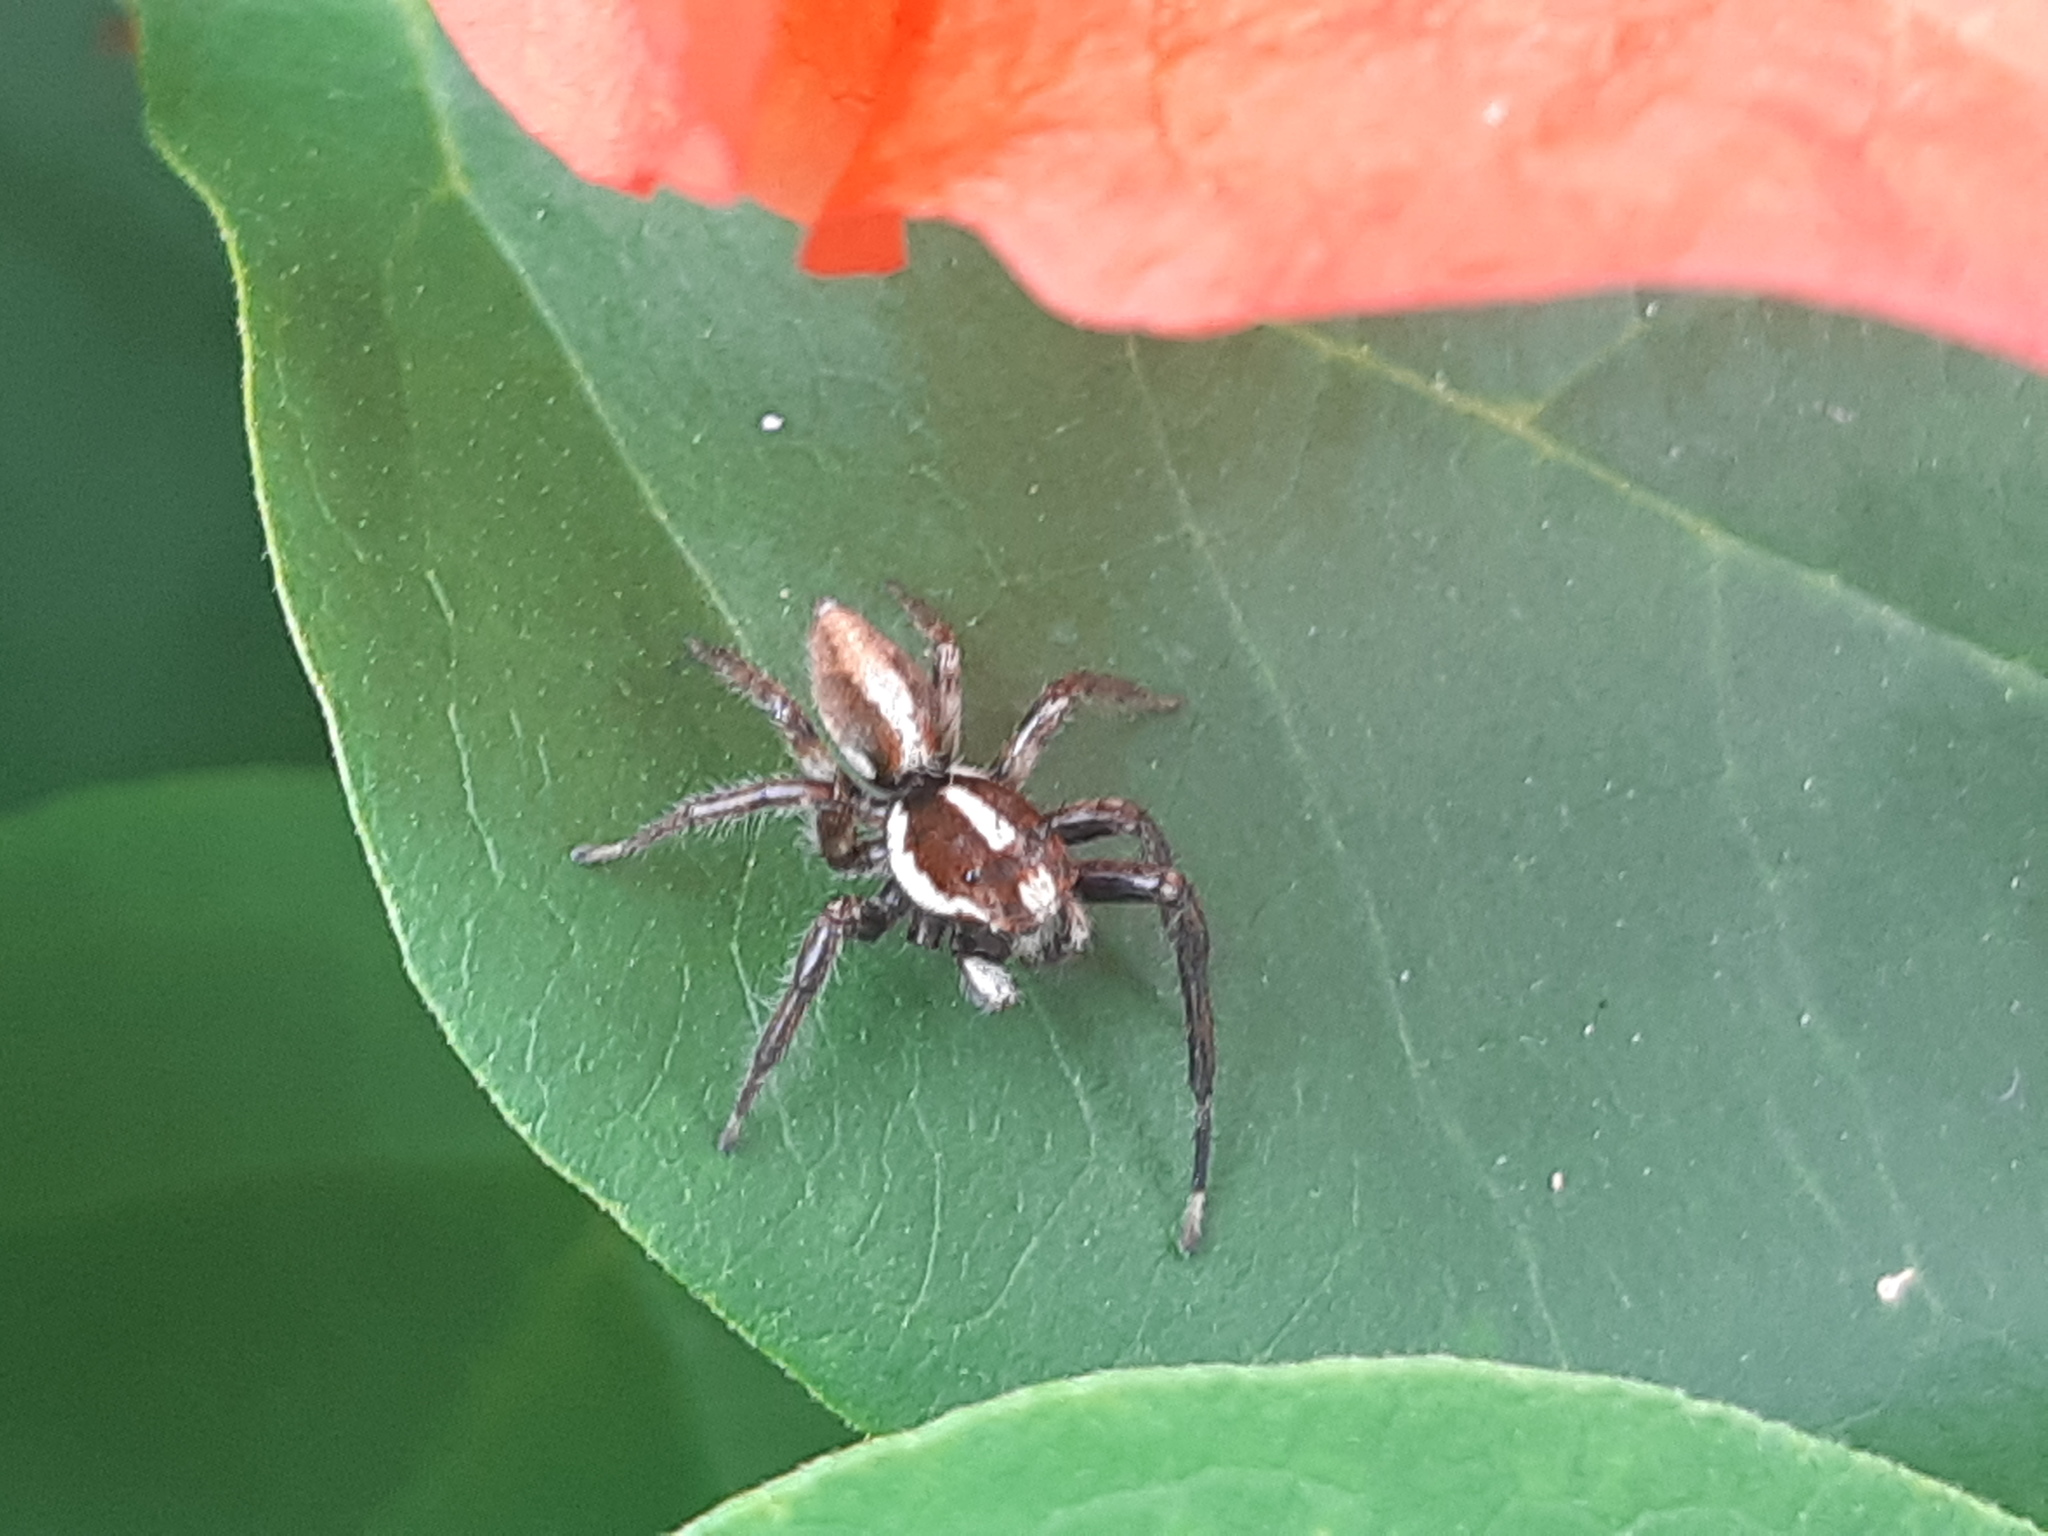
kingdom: Animalia
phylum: Arthropoda
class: Arachnida
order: Araneae
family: Salticidae
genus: Frigga
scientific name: Frigga crocuta
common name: Jumping spiders
